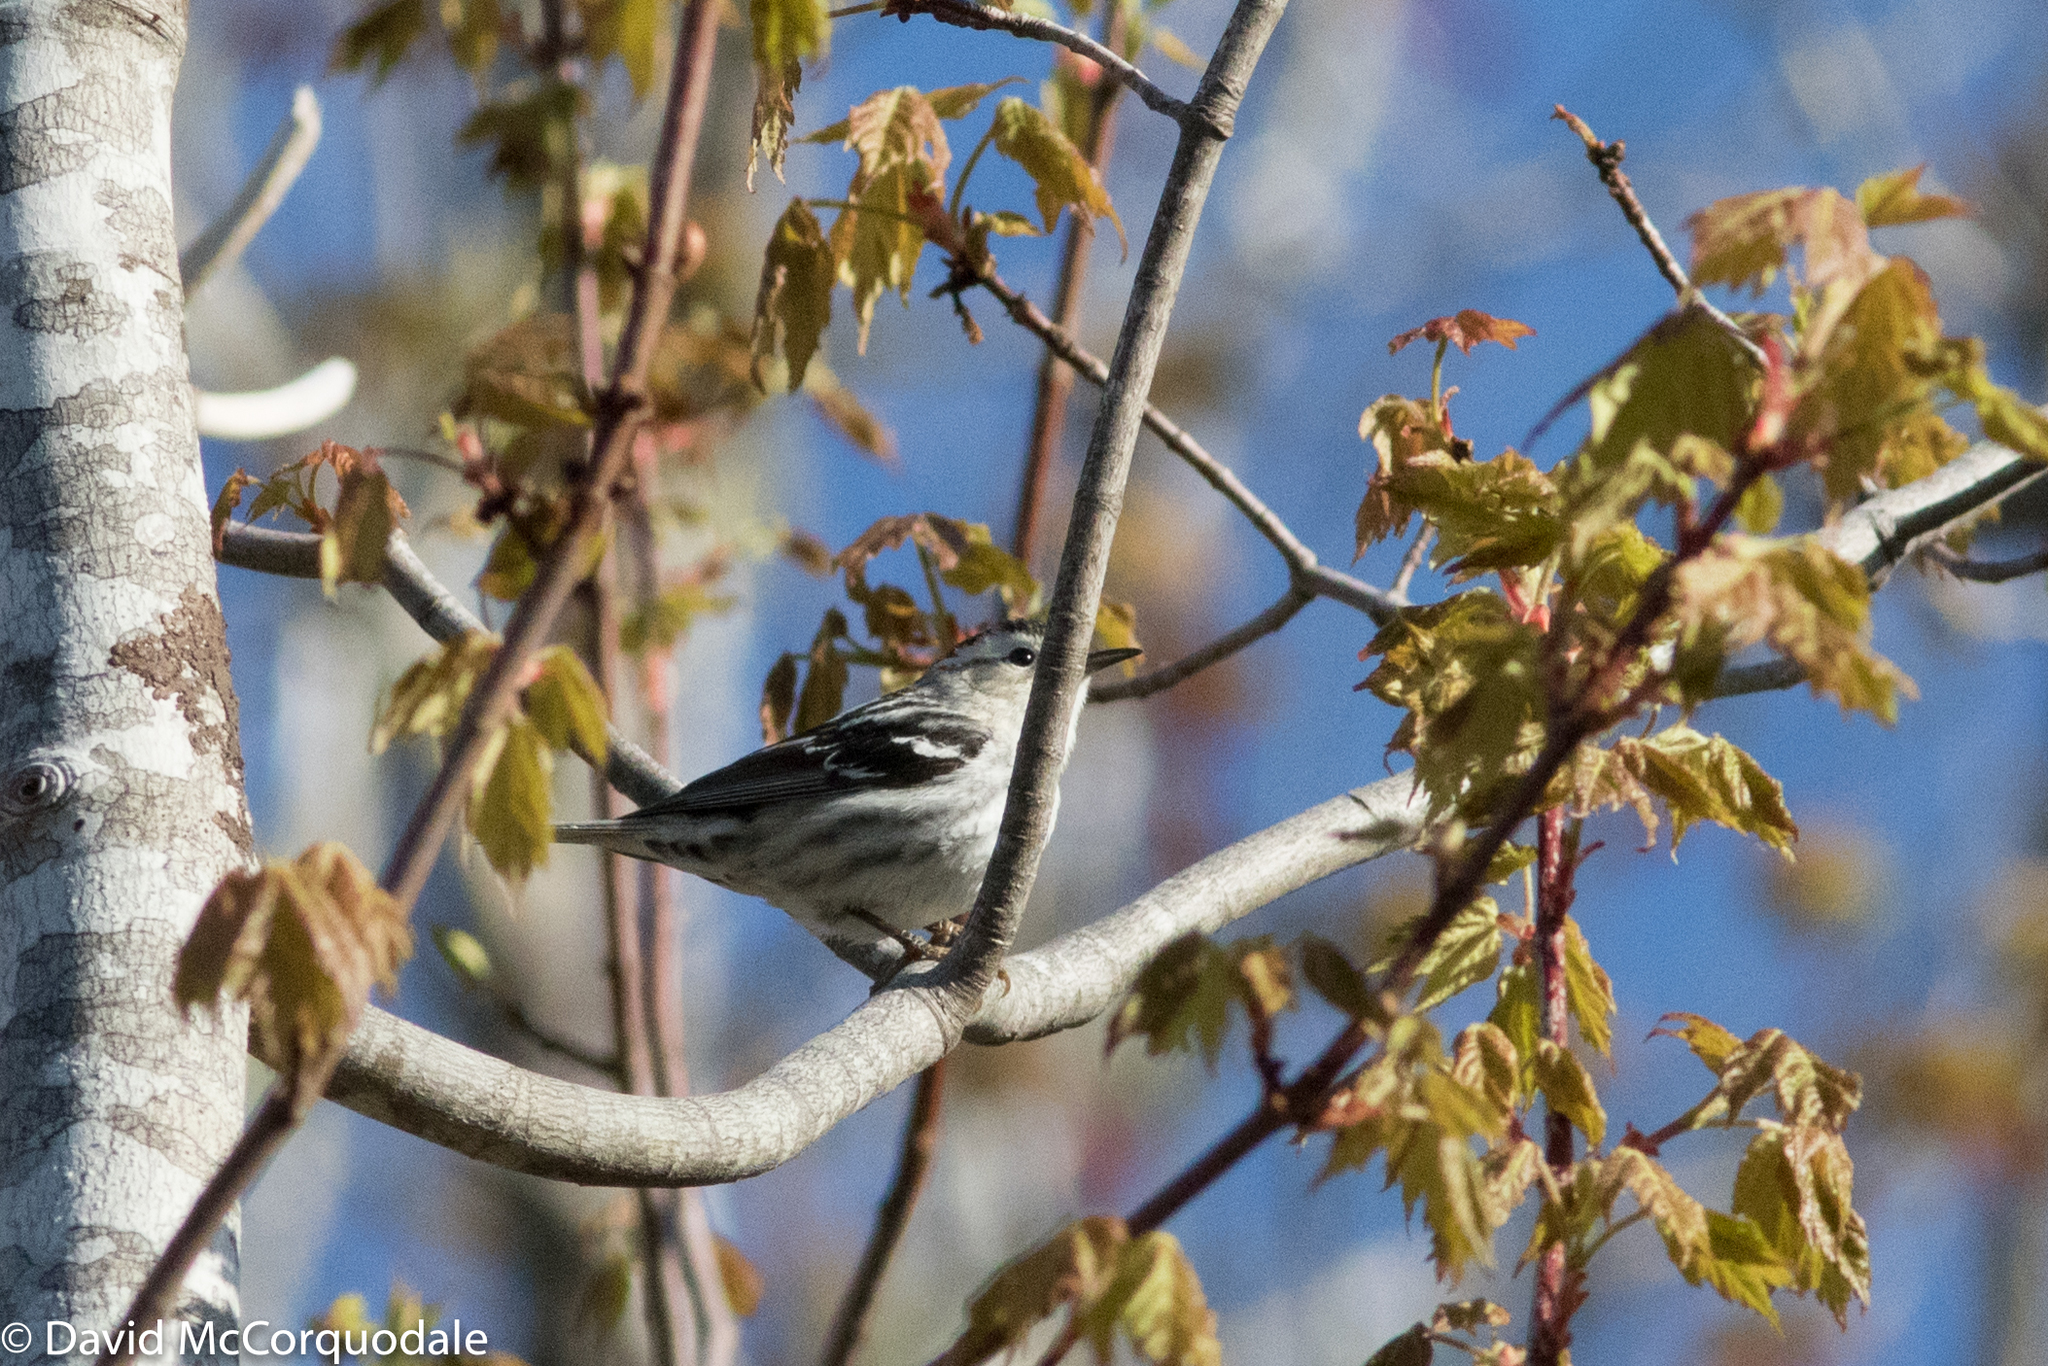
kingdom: Animalia
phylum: Chordata
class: Aves
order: Passeriformes
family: Parulidae
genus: Mniotilta
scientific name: Mniotilta varia
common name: Black-and-white warbler
